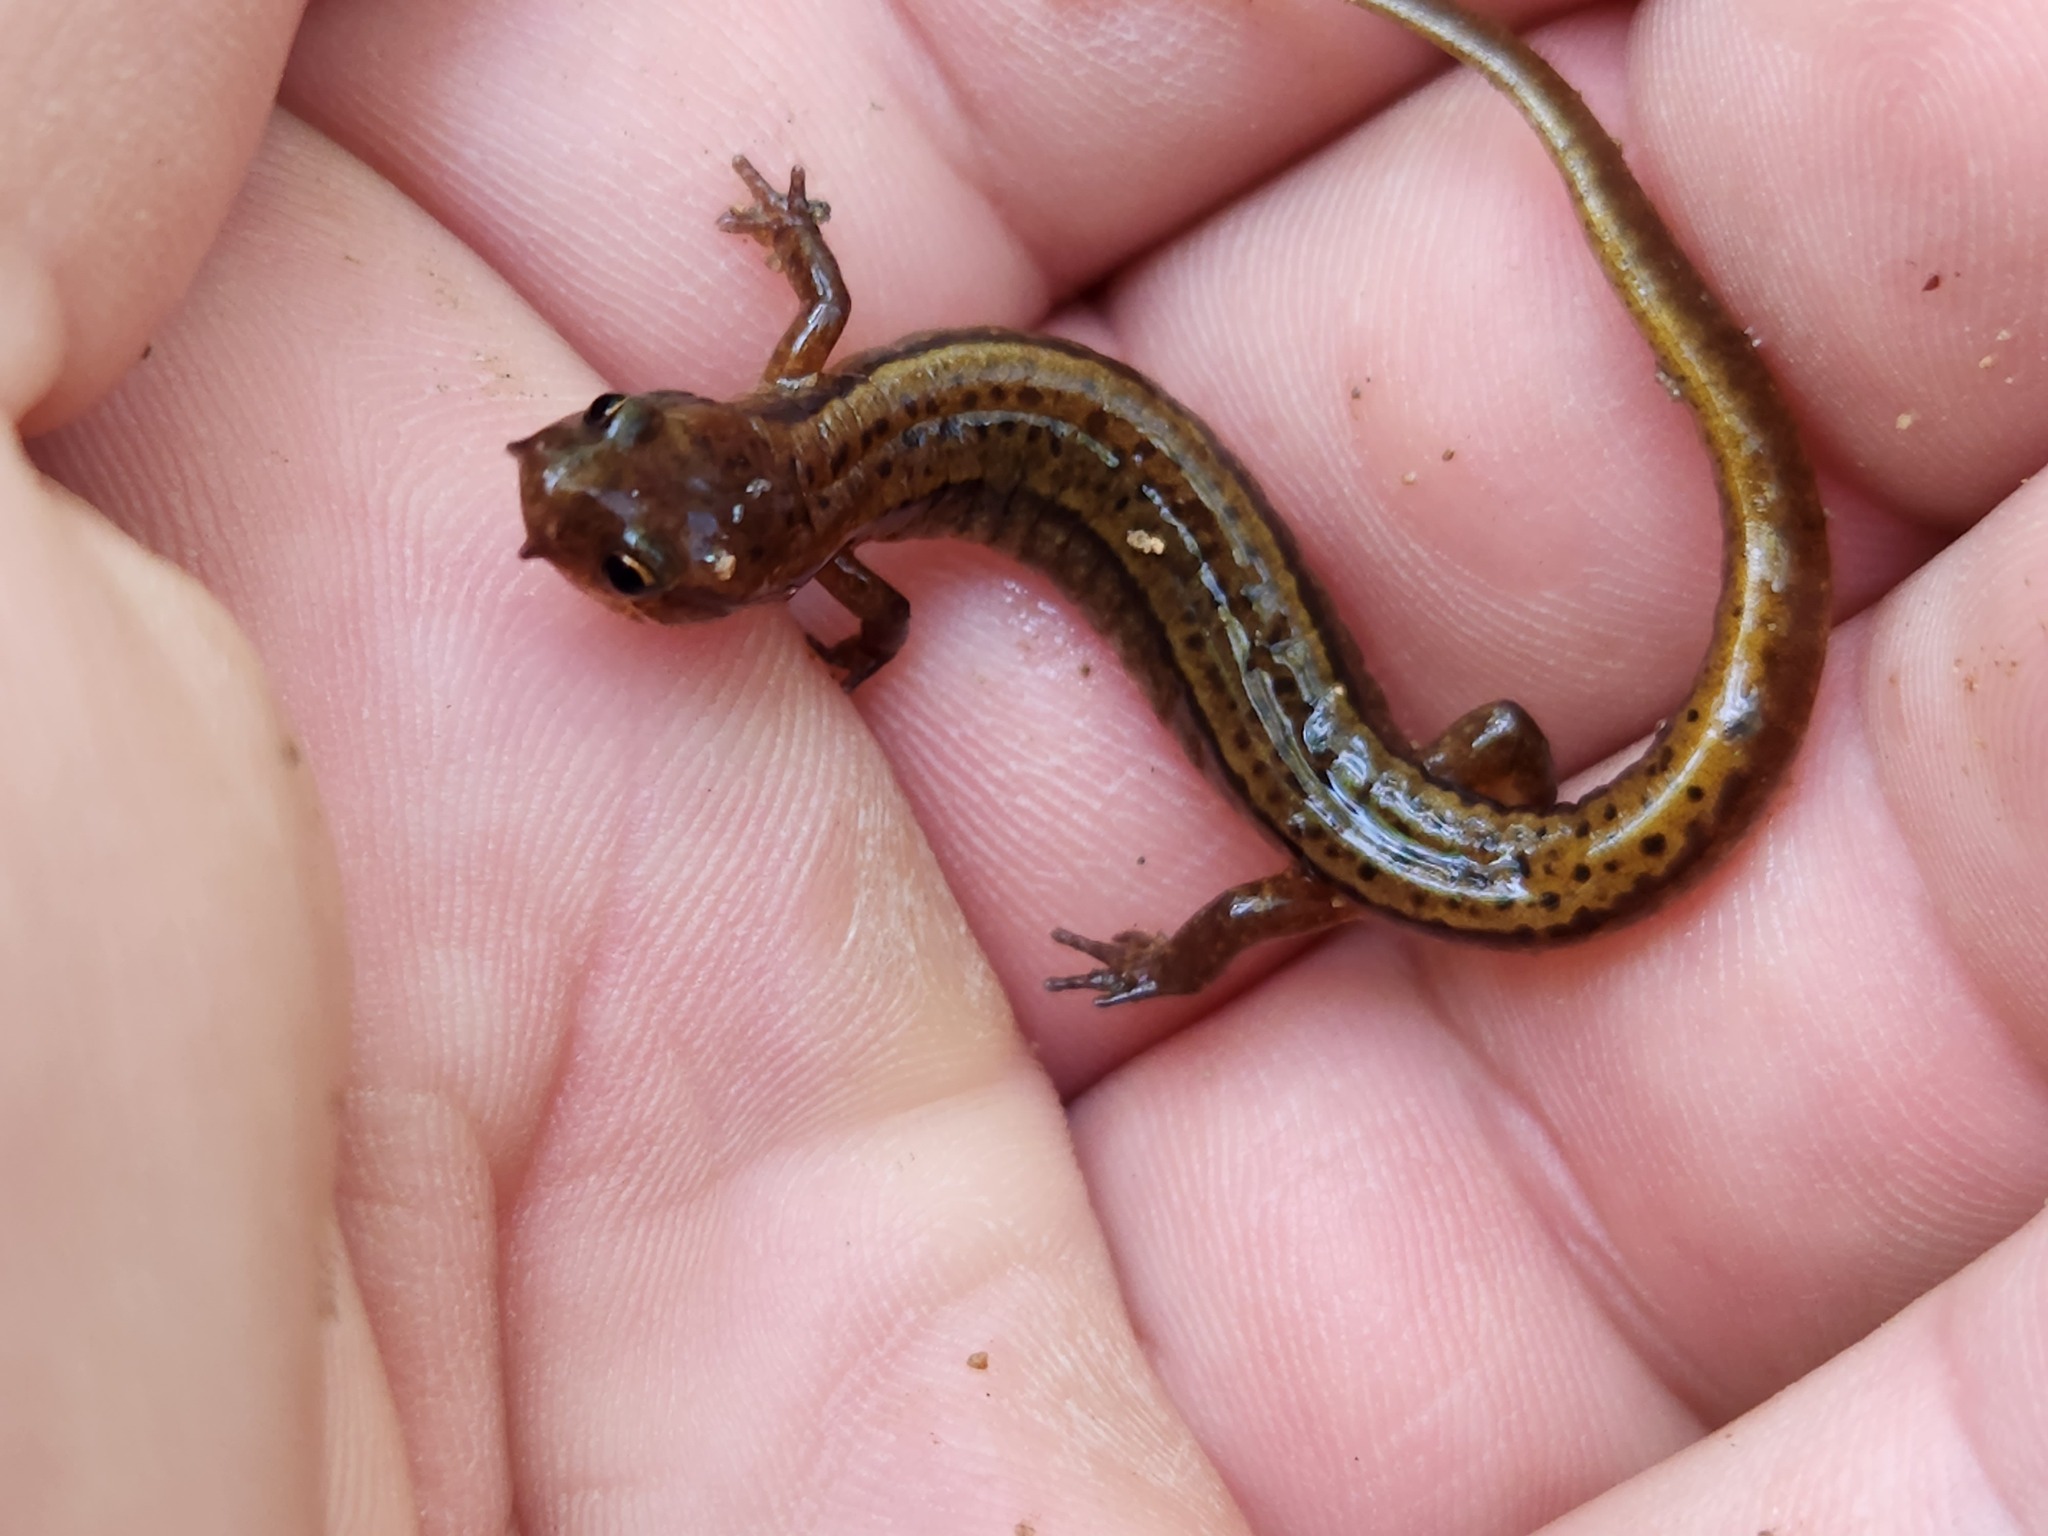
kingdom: Animalia
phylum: Chordata
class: Amphibia
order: Caudata
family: Plethodontidae
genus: Eurycea
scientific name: Eurycea cirrigera
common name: Southern two-lined salamander
